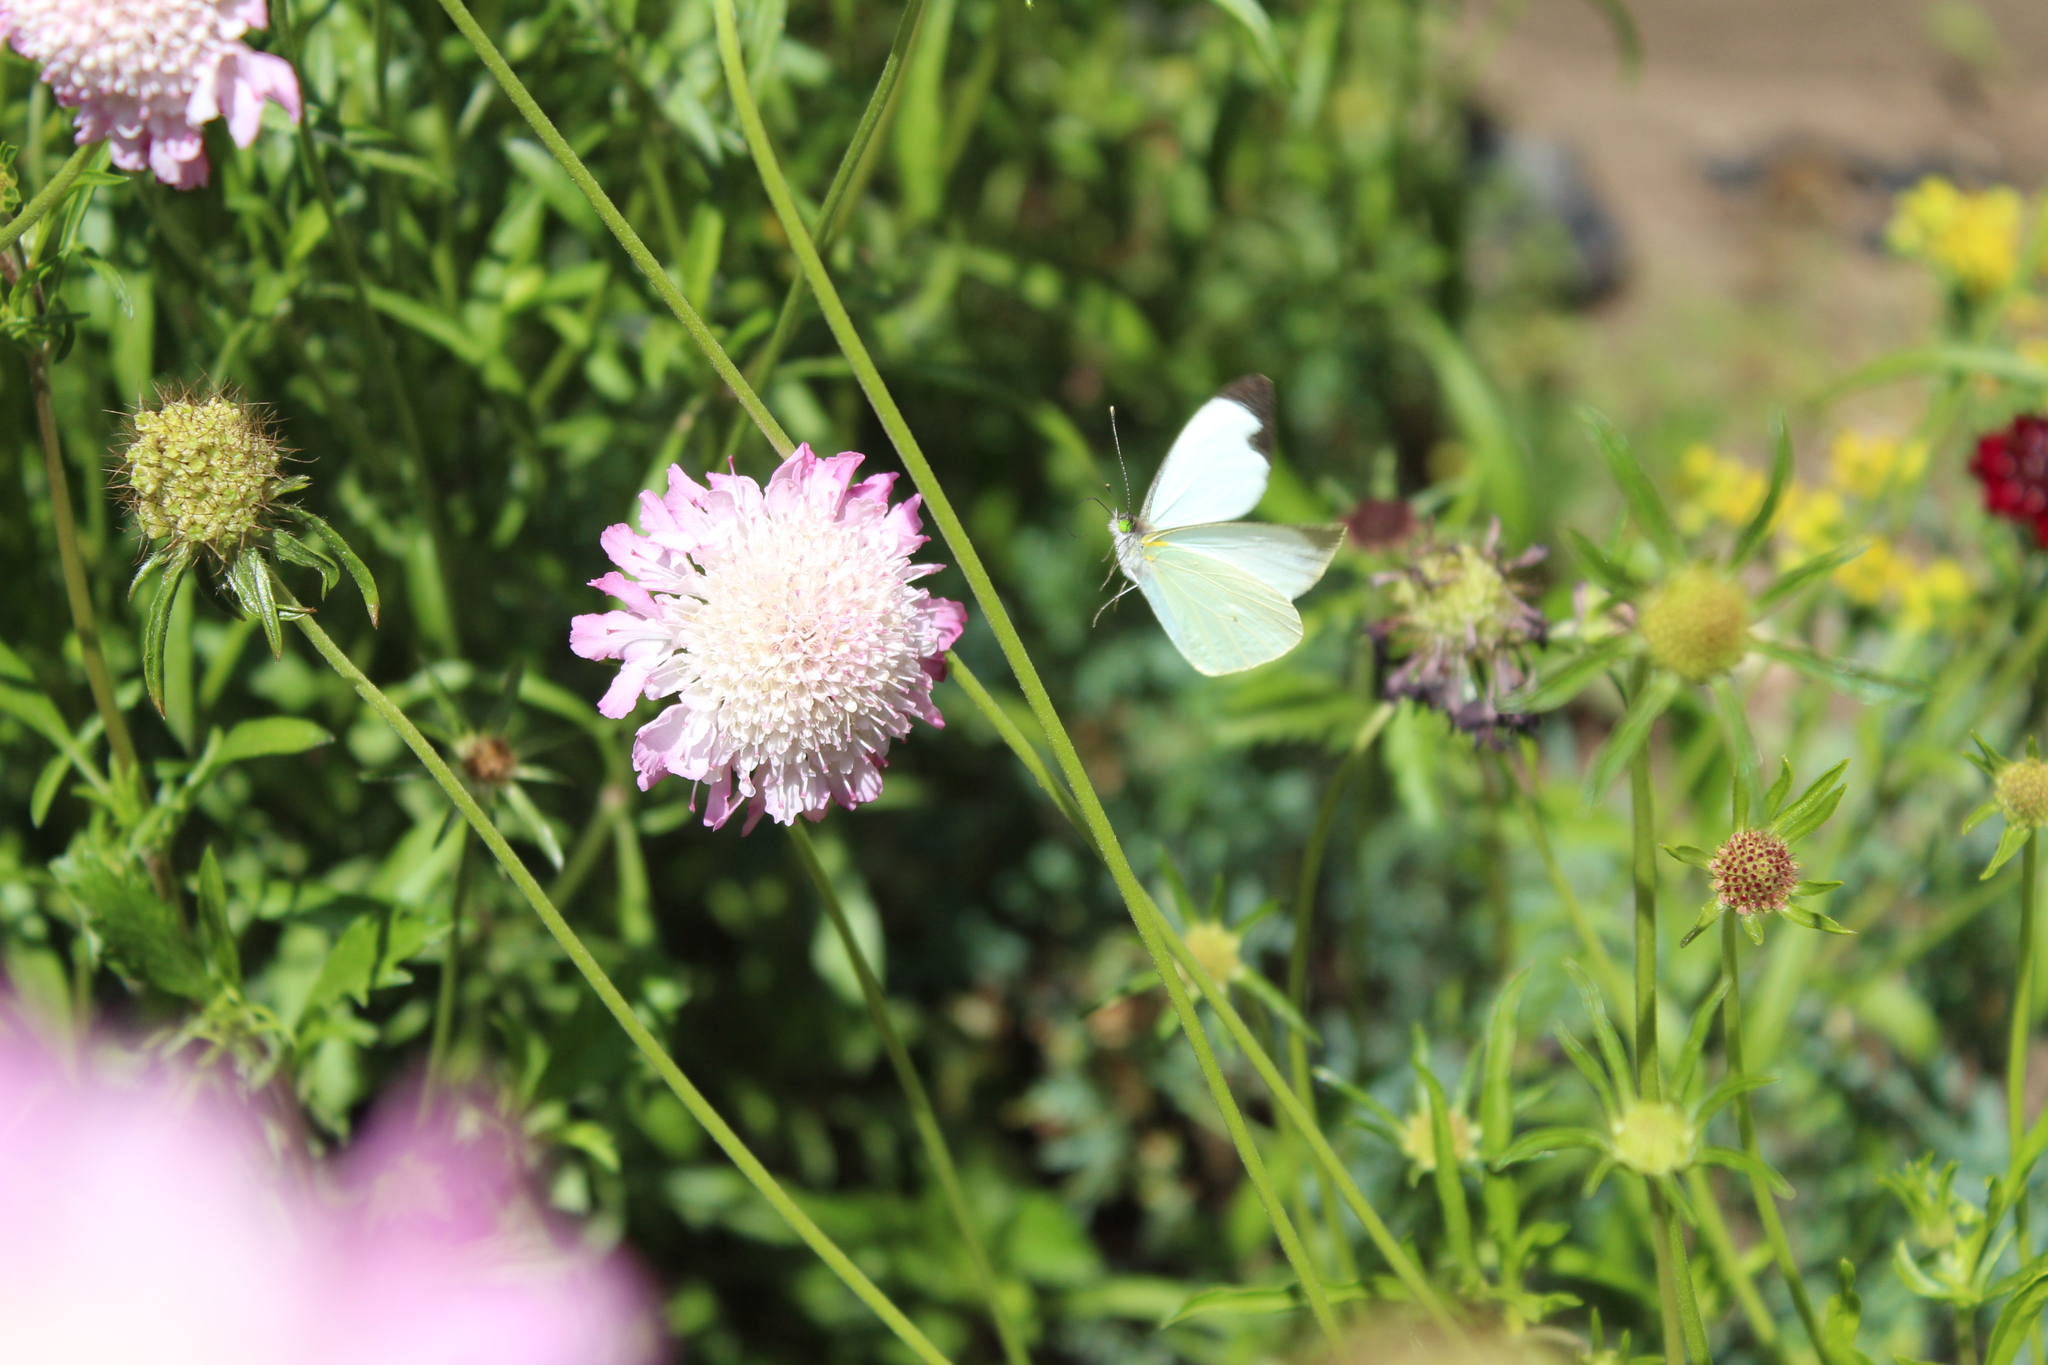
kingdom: Animalia
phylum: Arthropoda
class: Insecta
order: Lepidoptera
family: Pieridae
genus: Leptophobia
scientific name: Leptophobia aripa
